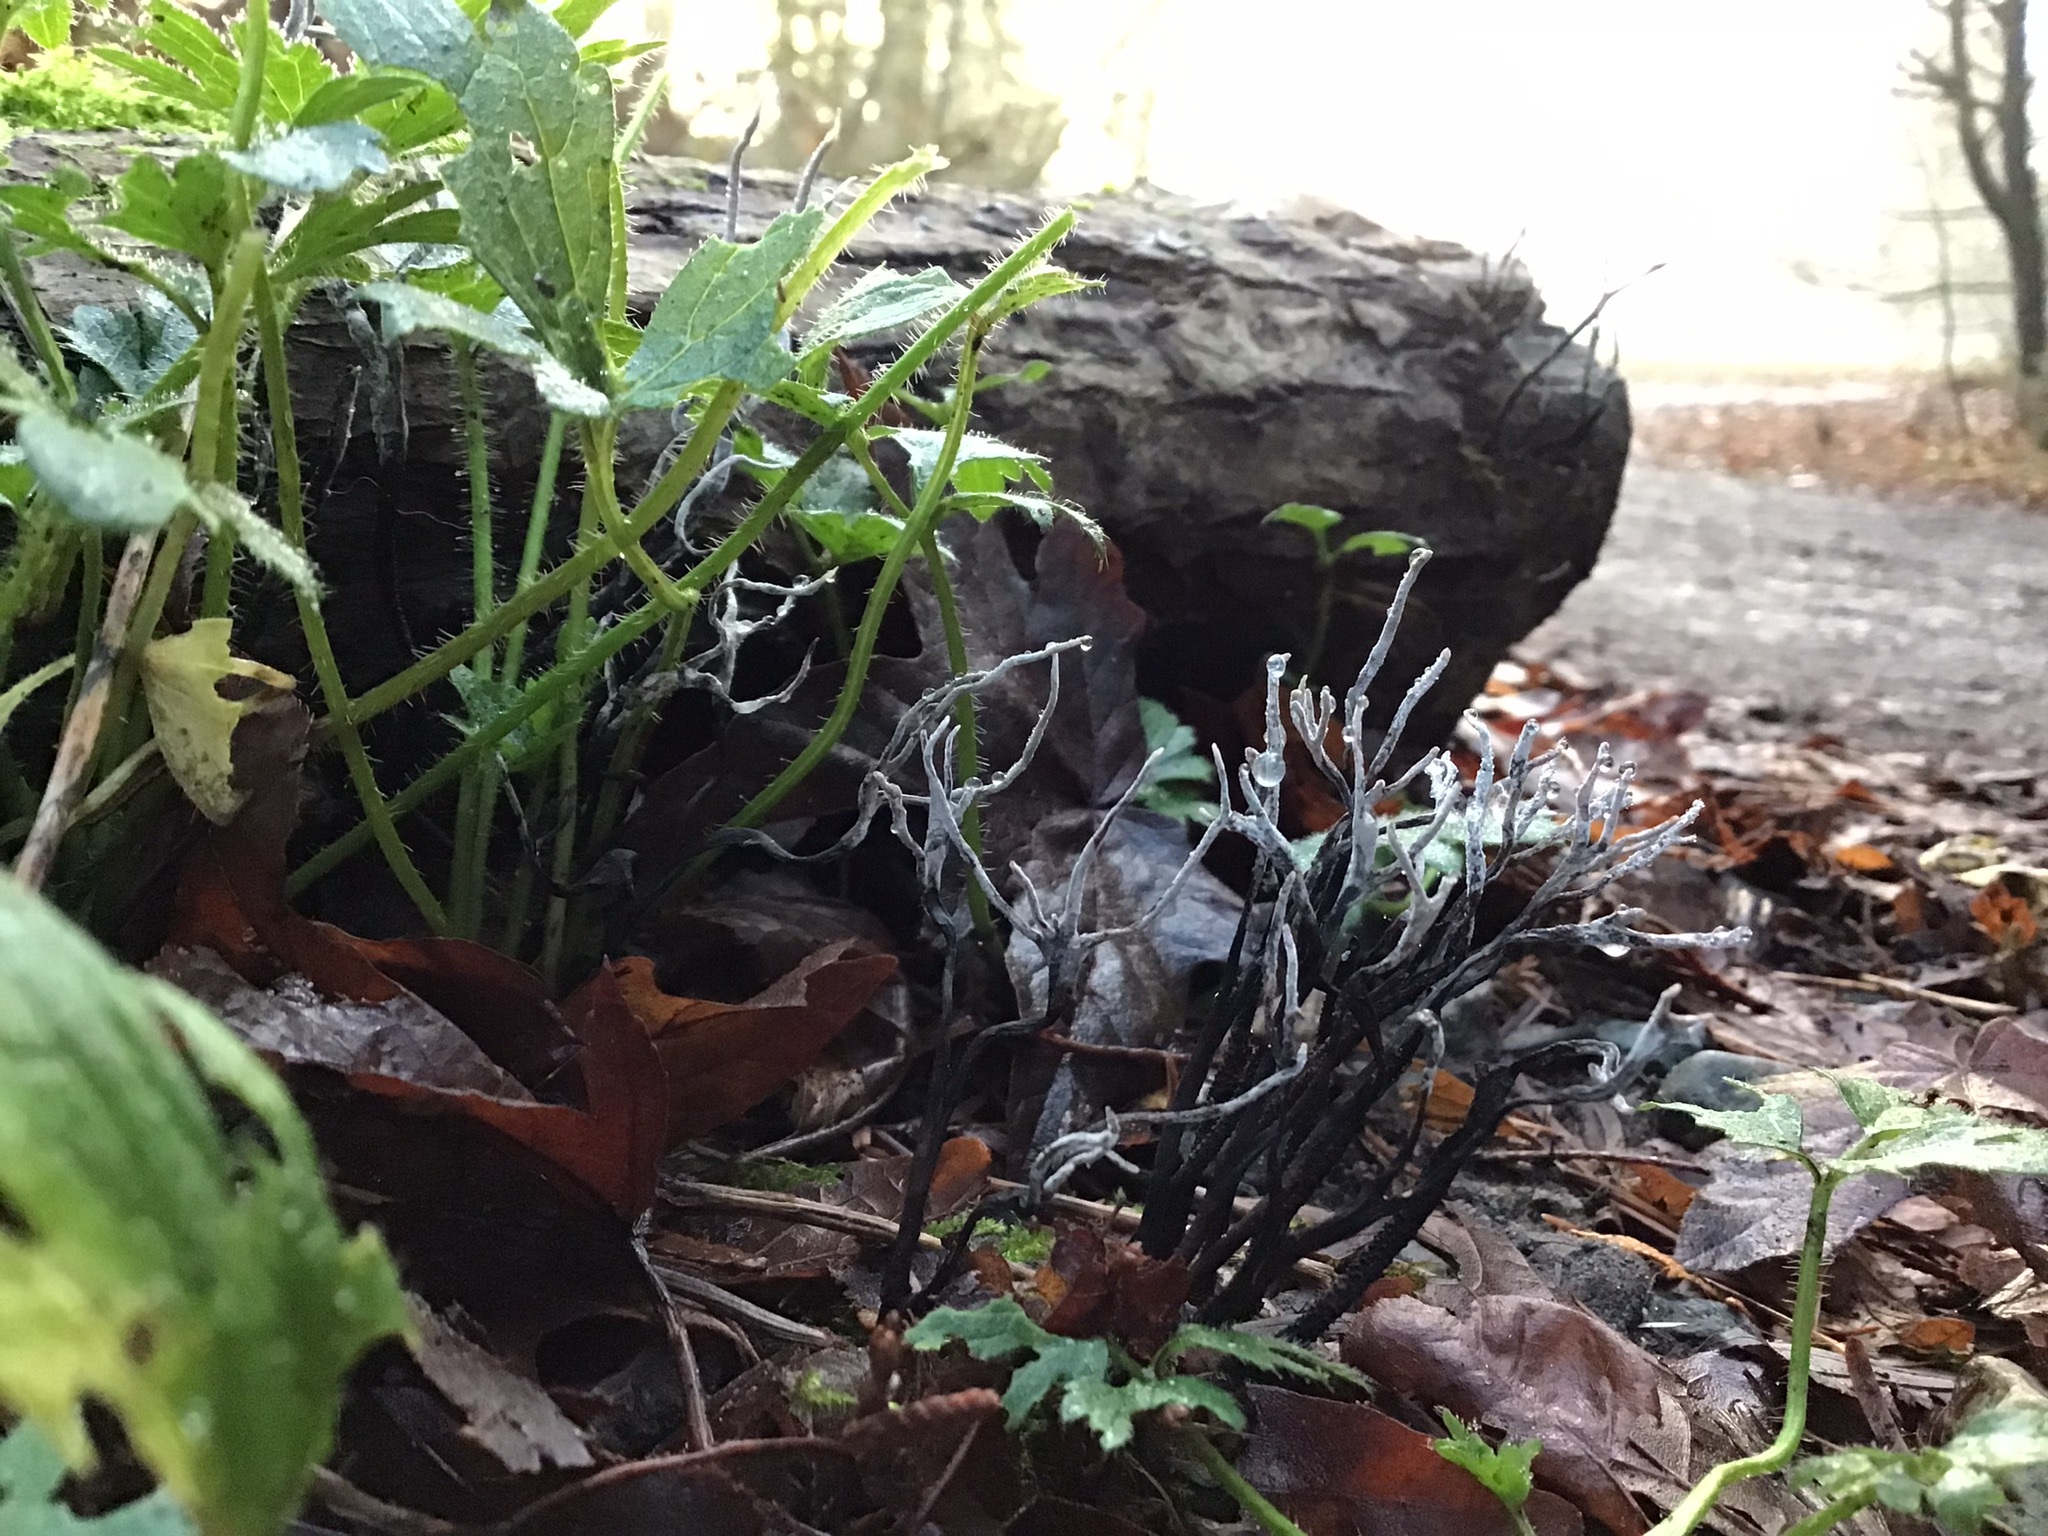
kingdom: Fungi
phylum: Ascomycota
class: Sordariomycetes
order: Xylariales
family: Xylariaceae
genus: Xylaria
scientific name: Xylaria hypoxylon
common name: Candle-snuff fungus
